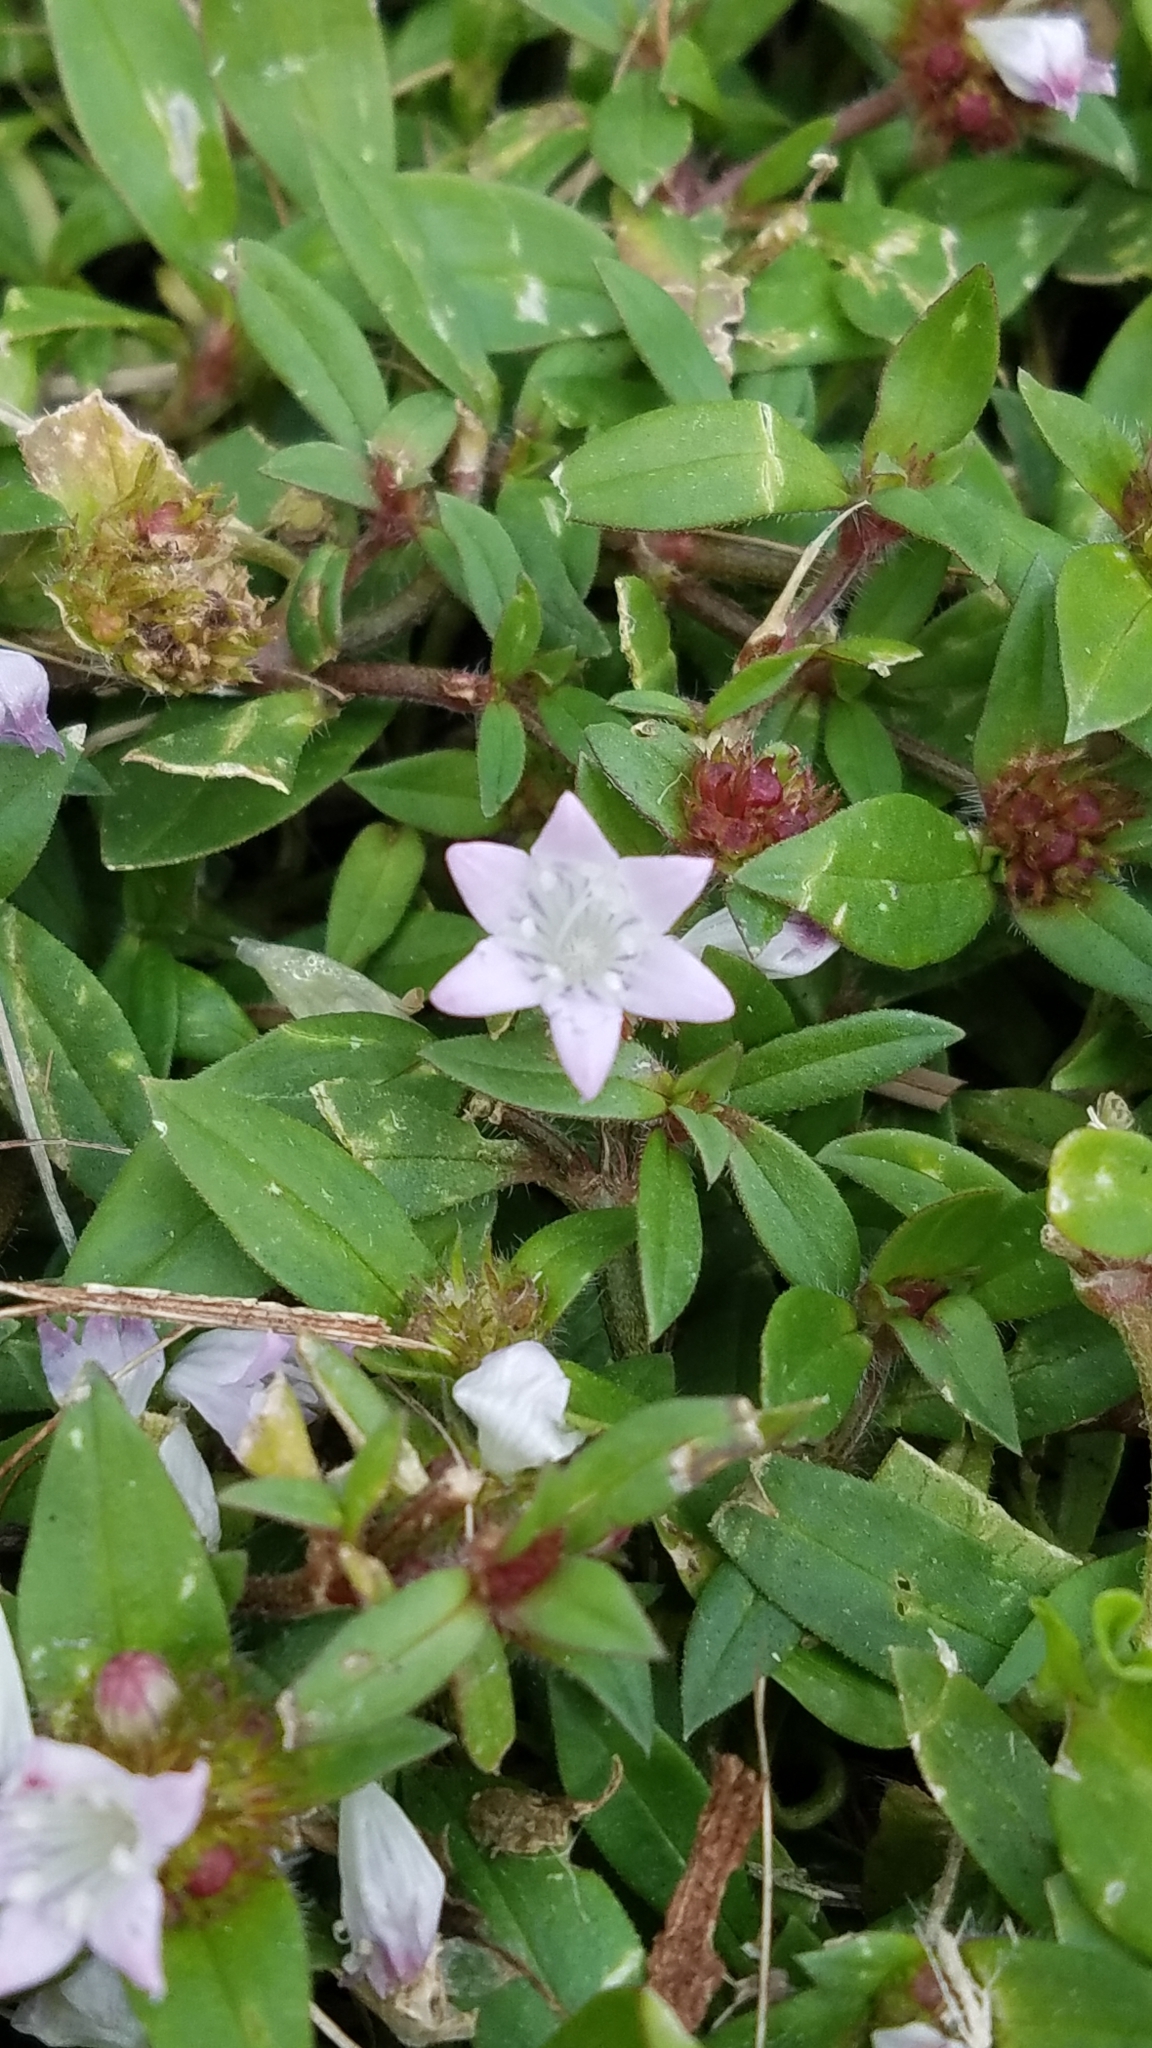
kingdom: Plantae
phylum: Tracheophyta
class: Magnoliopsida
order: Gentianales
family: Rubiaceae
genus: Richardia
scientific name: Richardia grandiflora
